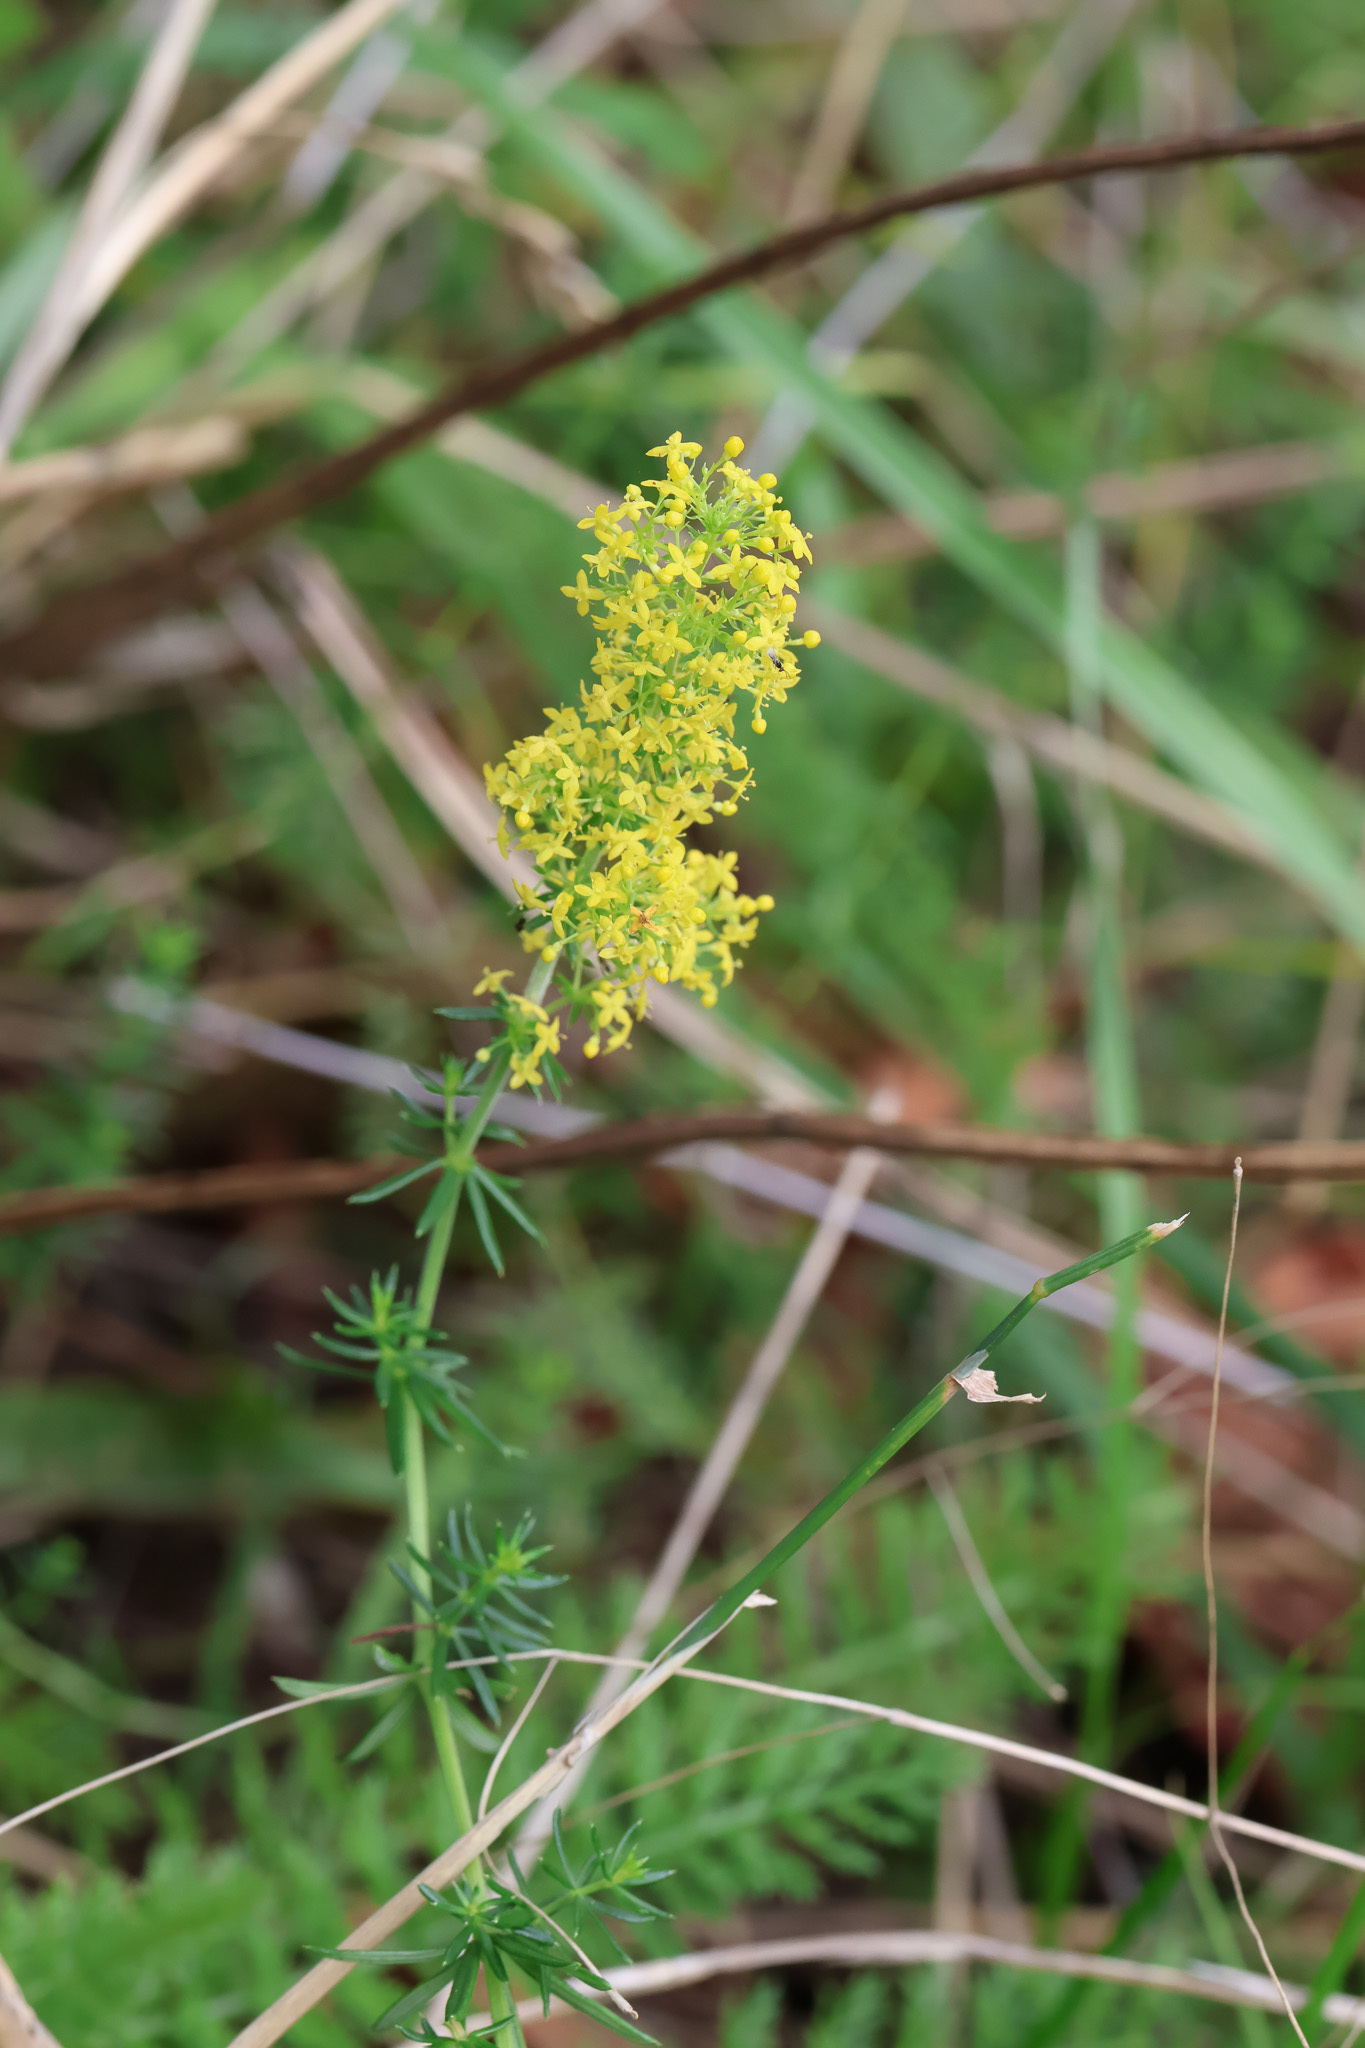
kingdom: Plantae
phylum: Tracheophyta
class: Magnoliopsida
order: Gentianales
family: Rubiaceae
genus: Galium
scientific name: Galium verum
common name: Lady's bedstraw
